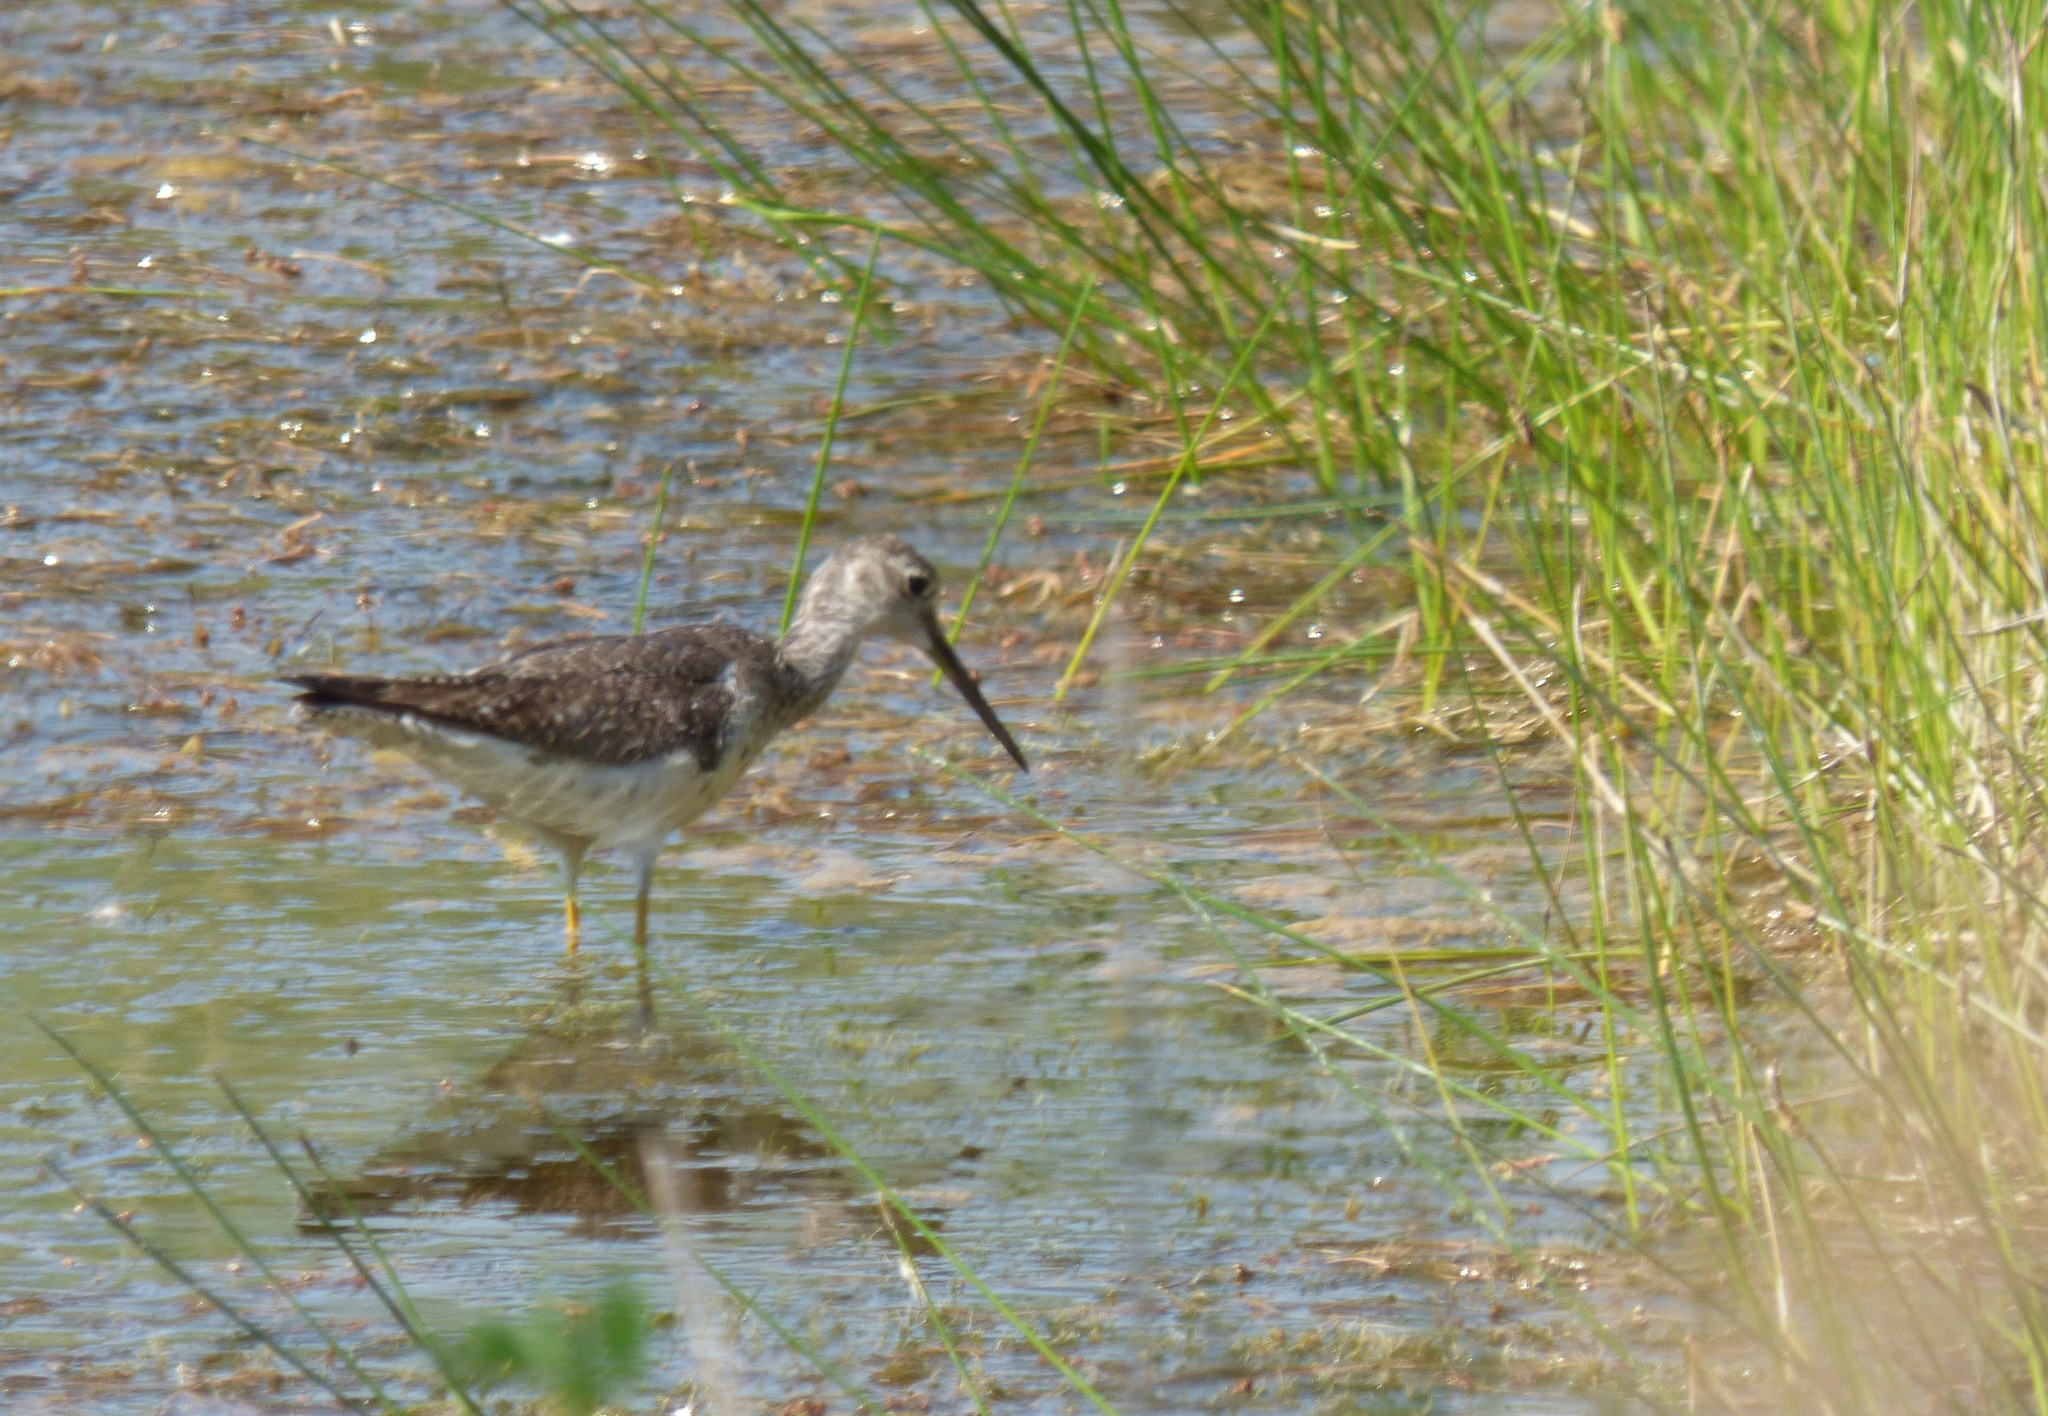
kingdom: Animalia
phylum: Chordata
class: Aves
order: Charadriiformes
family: Scolopacidae
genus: Tringa
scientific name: Tringa melanoleuca
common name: Greater yellowlegs
